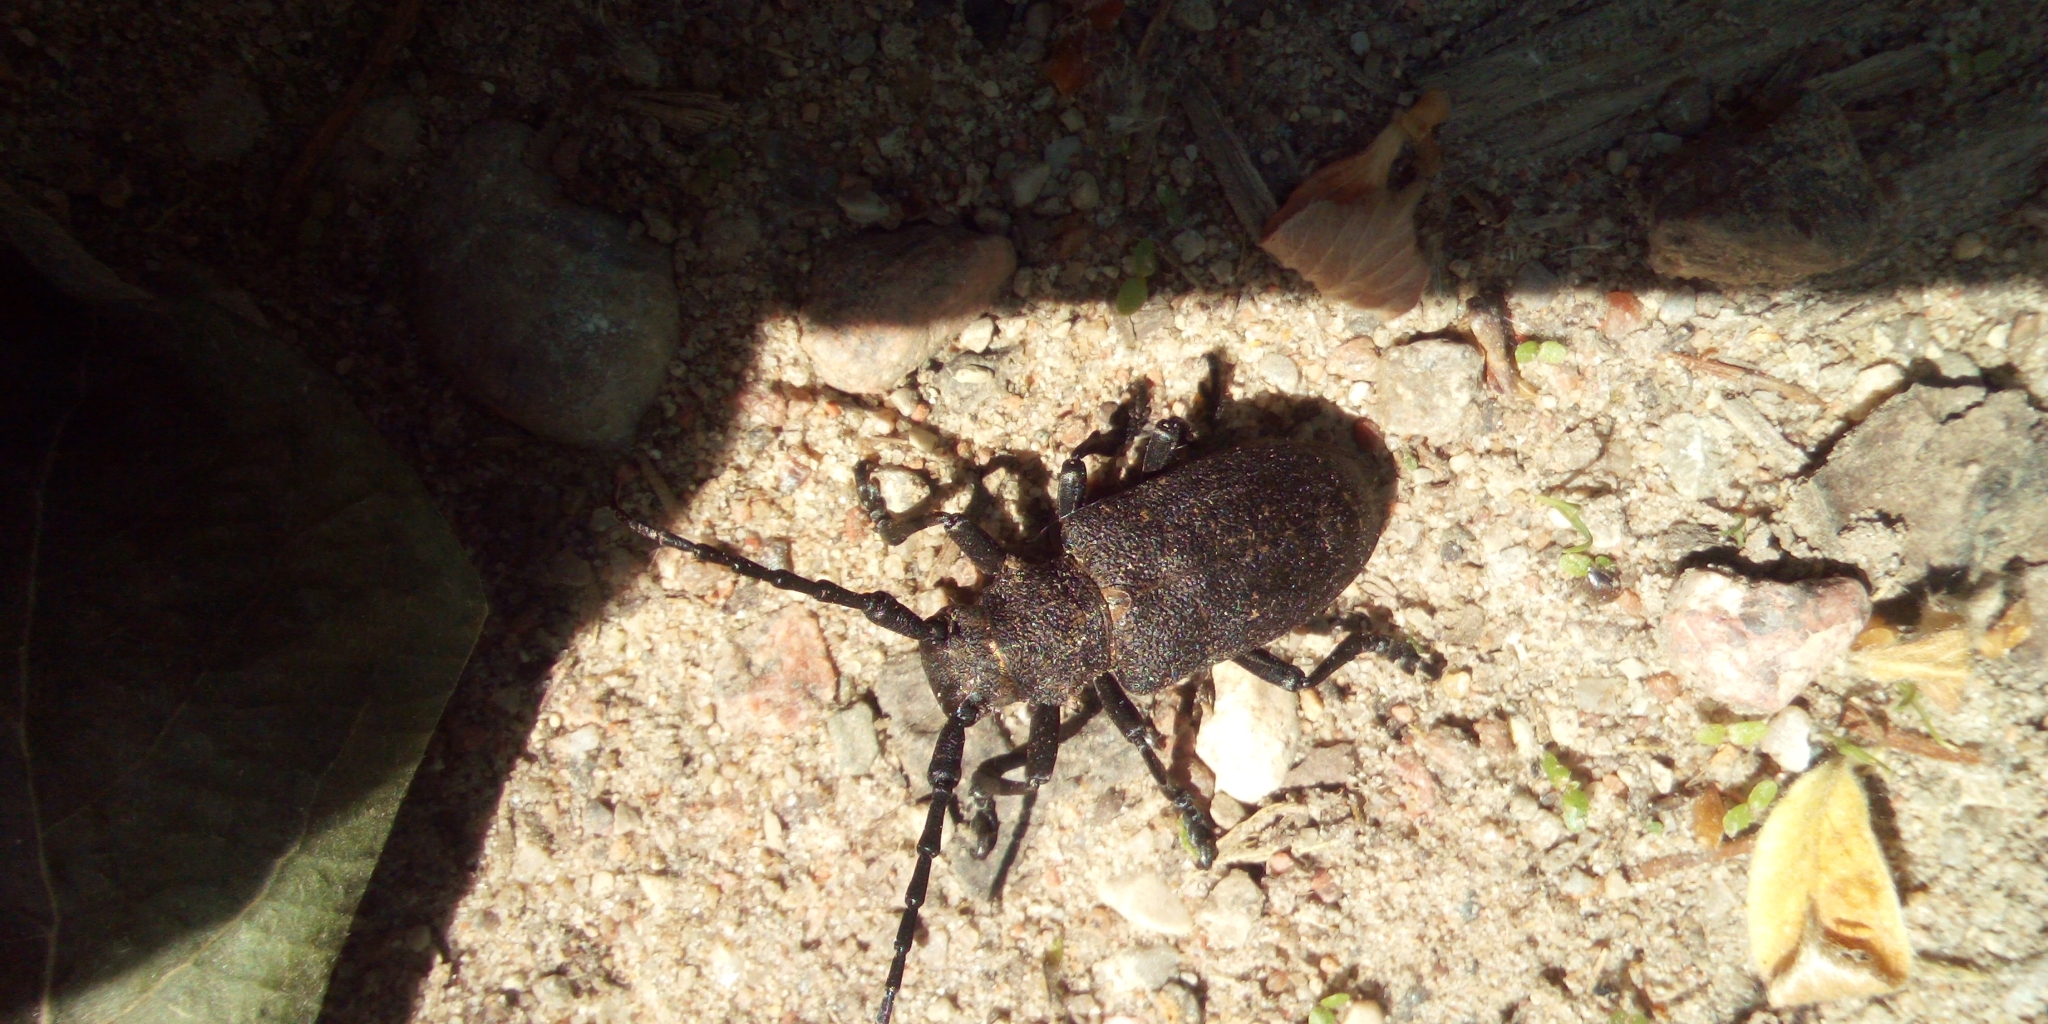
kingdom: Animalia
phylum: Arthropoda
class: Insecta
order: Coleoptera
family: Cerambycidae
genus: Lamia
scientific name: Lamia textor
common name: Weaver beetle
